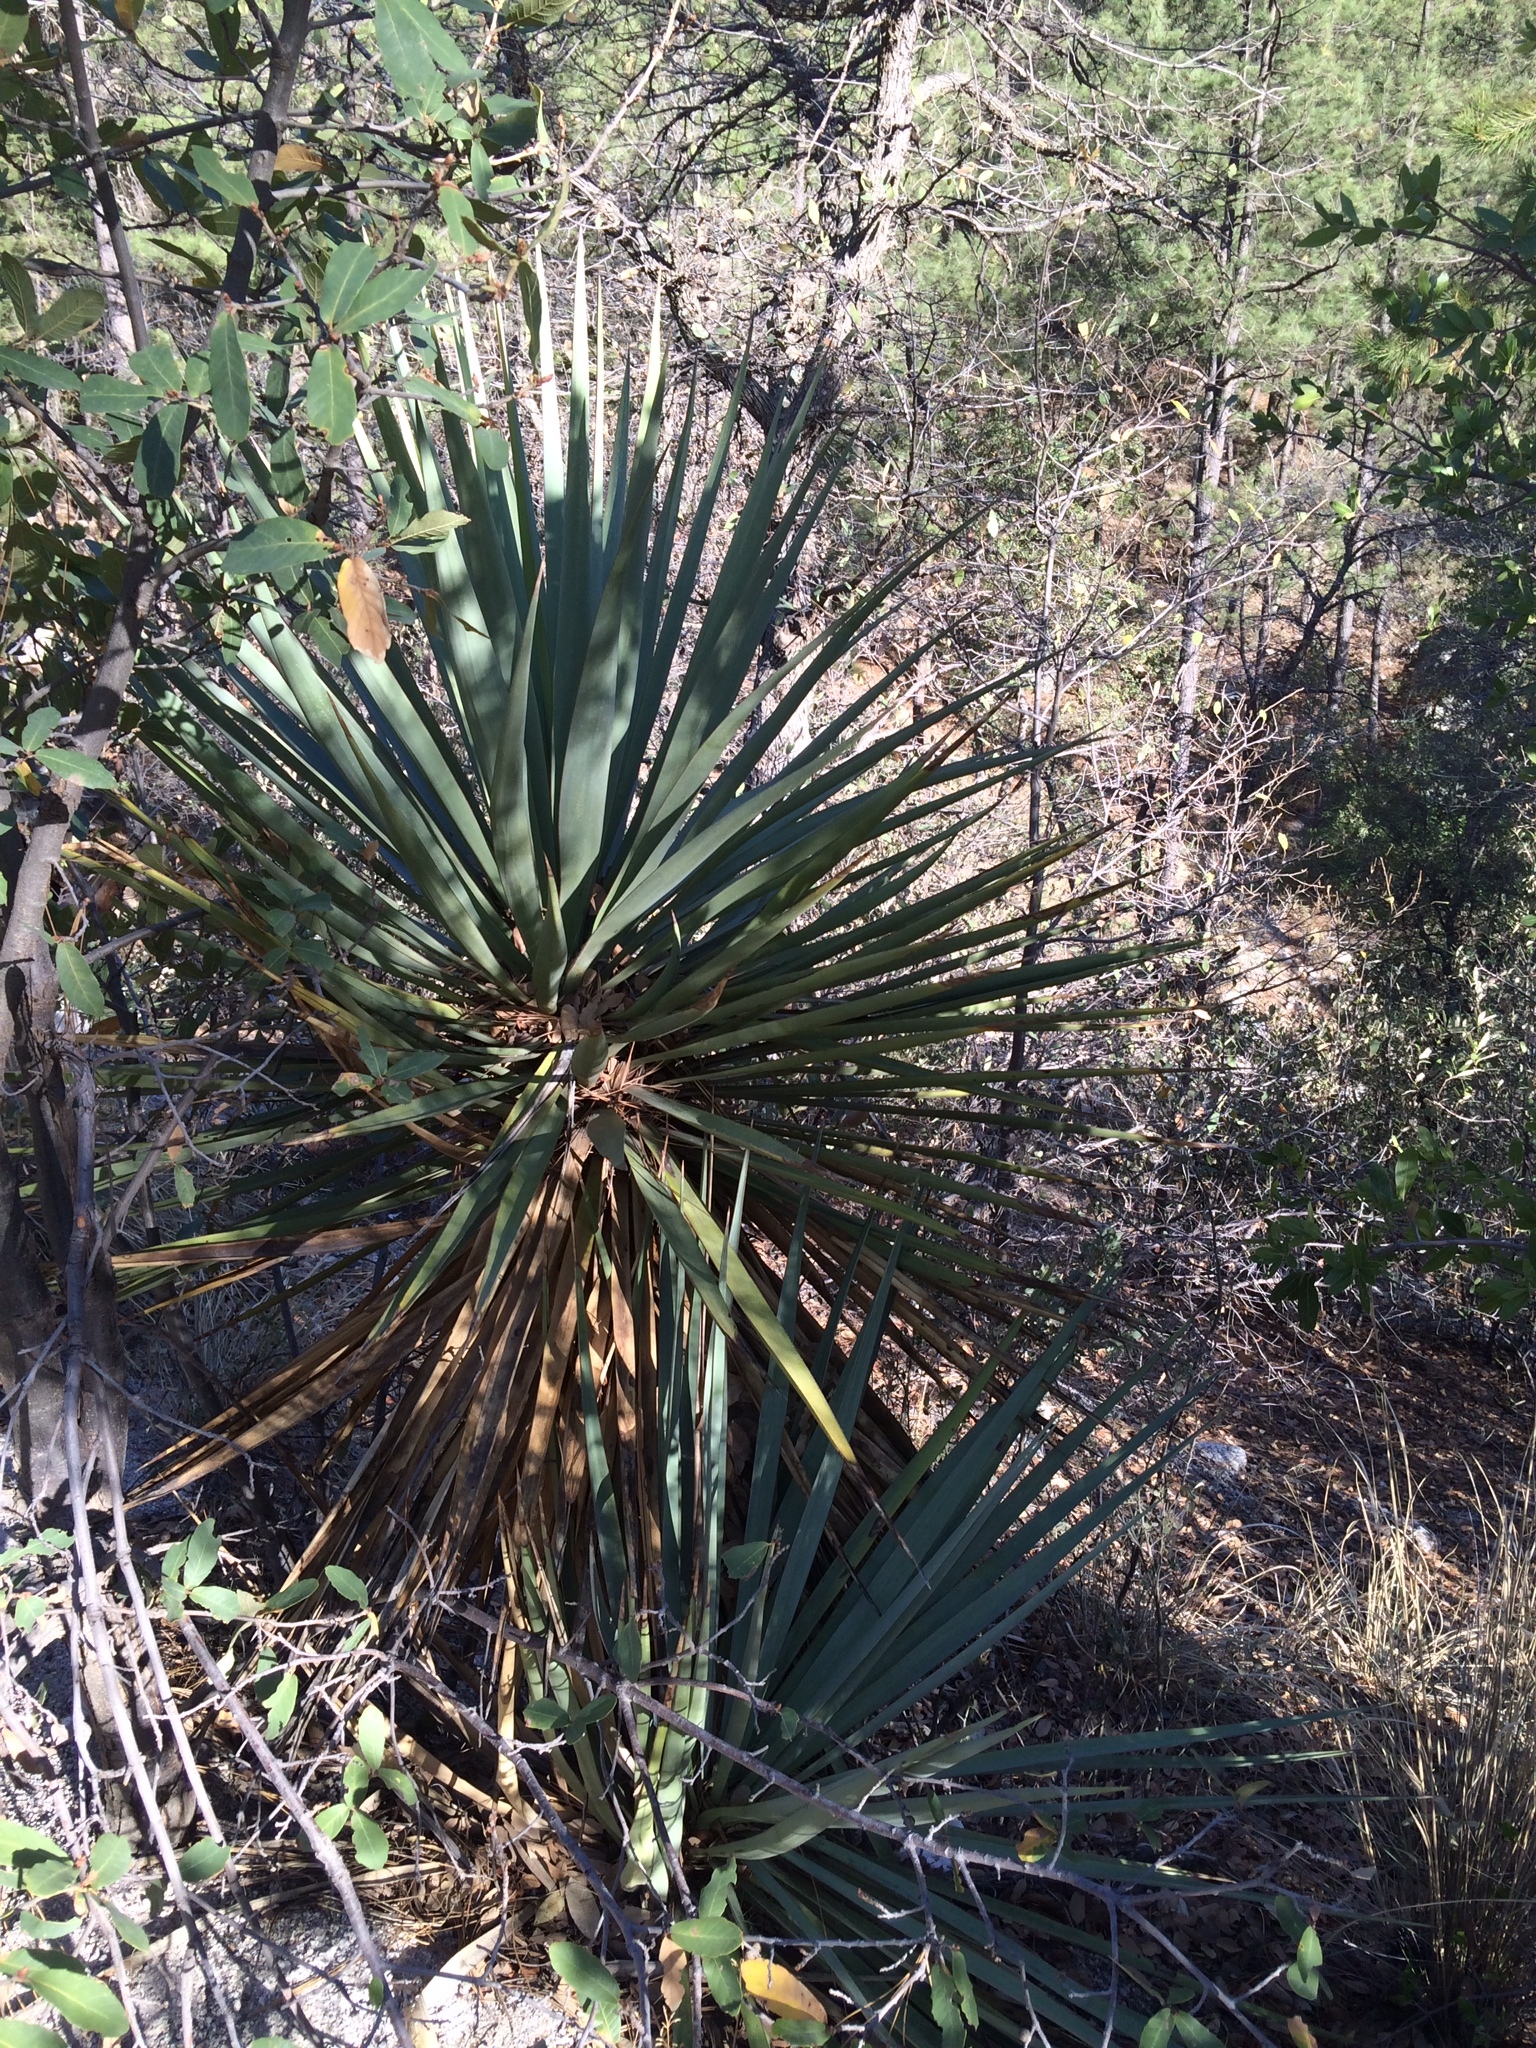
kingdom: Plantae
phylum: Tracheophyta
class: Liliopsida
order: Asparagales
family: Asparagaceae
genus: Yucca
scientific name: Yucca madrensis
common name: Hoary yucca
